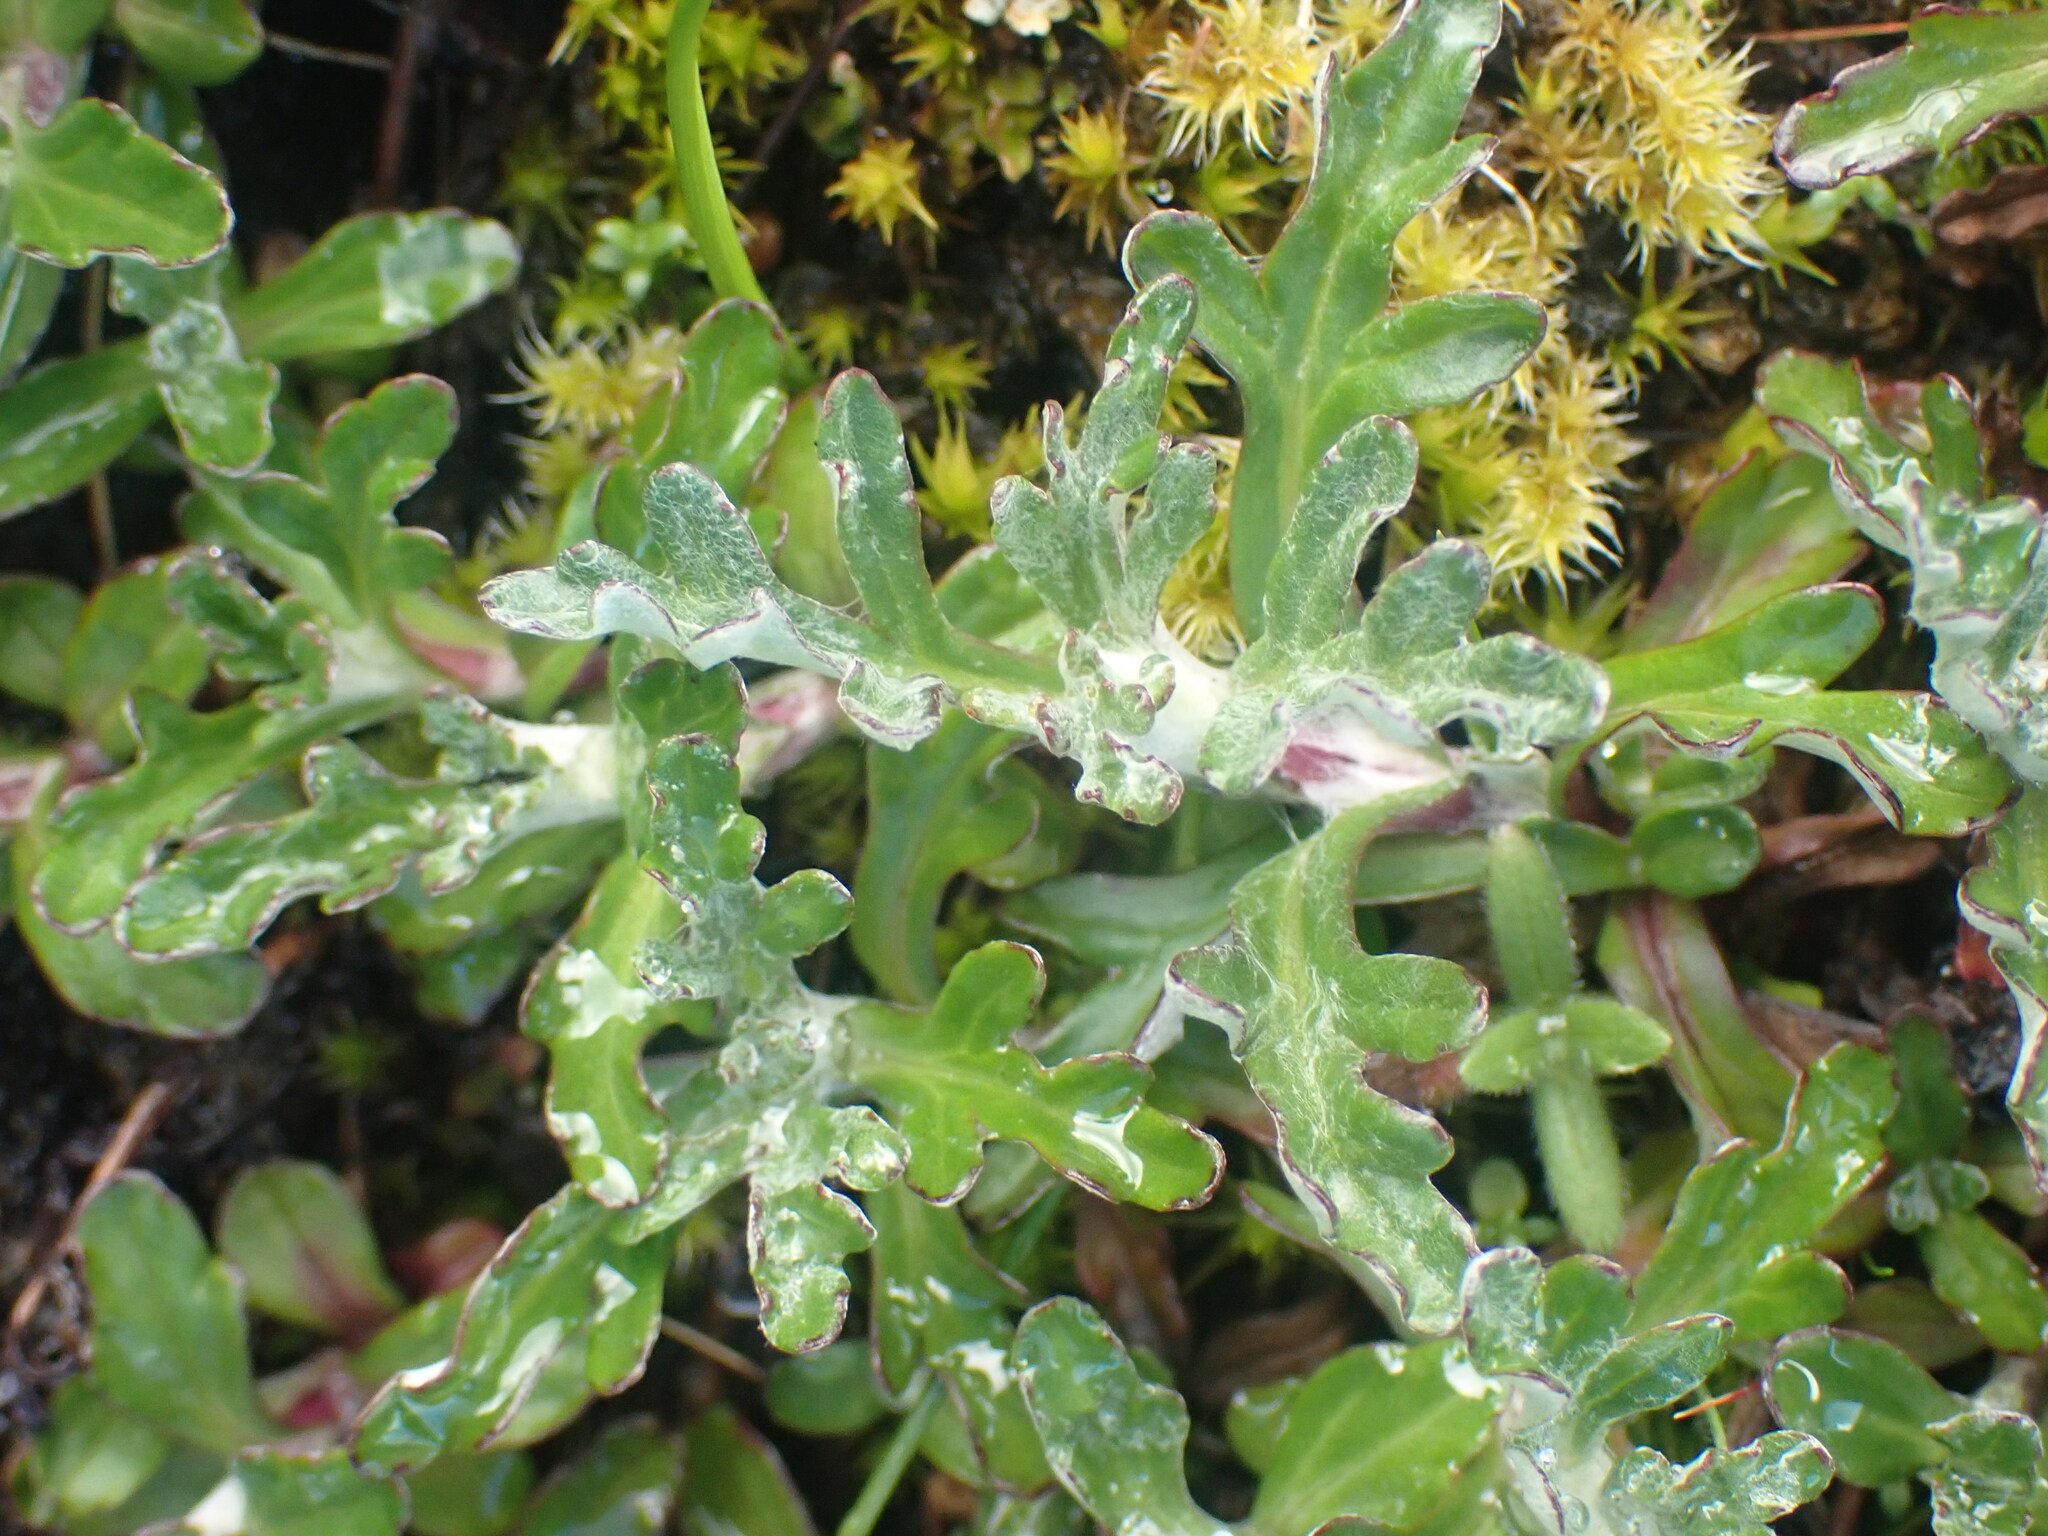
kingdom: Plantae
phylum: Tracheophyta
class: Magnoliopsida
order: Asterales
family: Asteraceae
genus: Eriophyllum
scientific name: Eriophyllum lanatum
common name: Common woolly-sunflower
